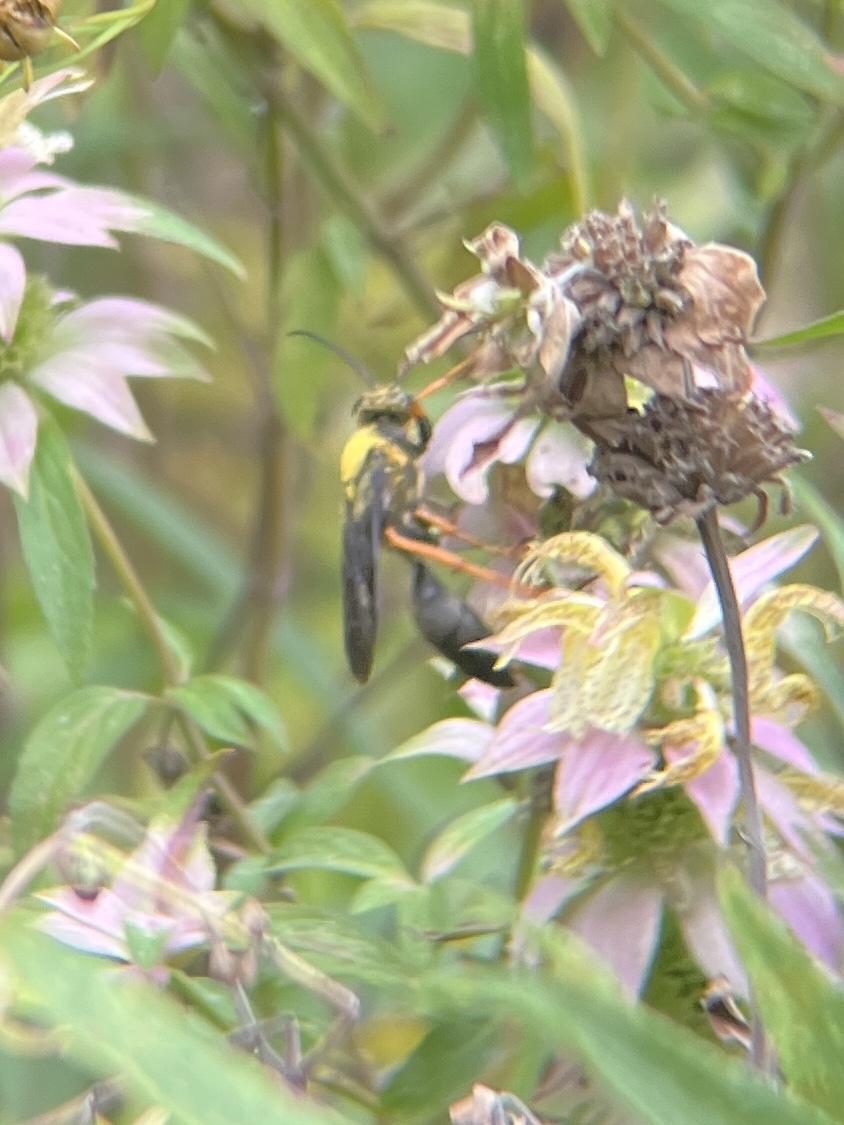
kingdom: Animalia
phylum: Arthropoda
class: Insecta
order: Hymenoptera
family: Sphecidae
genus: Sphex
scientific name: Sphex flavovestitus
